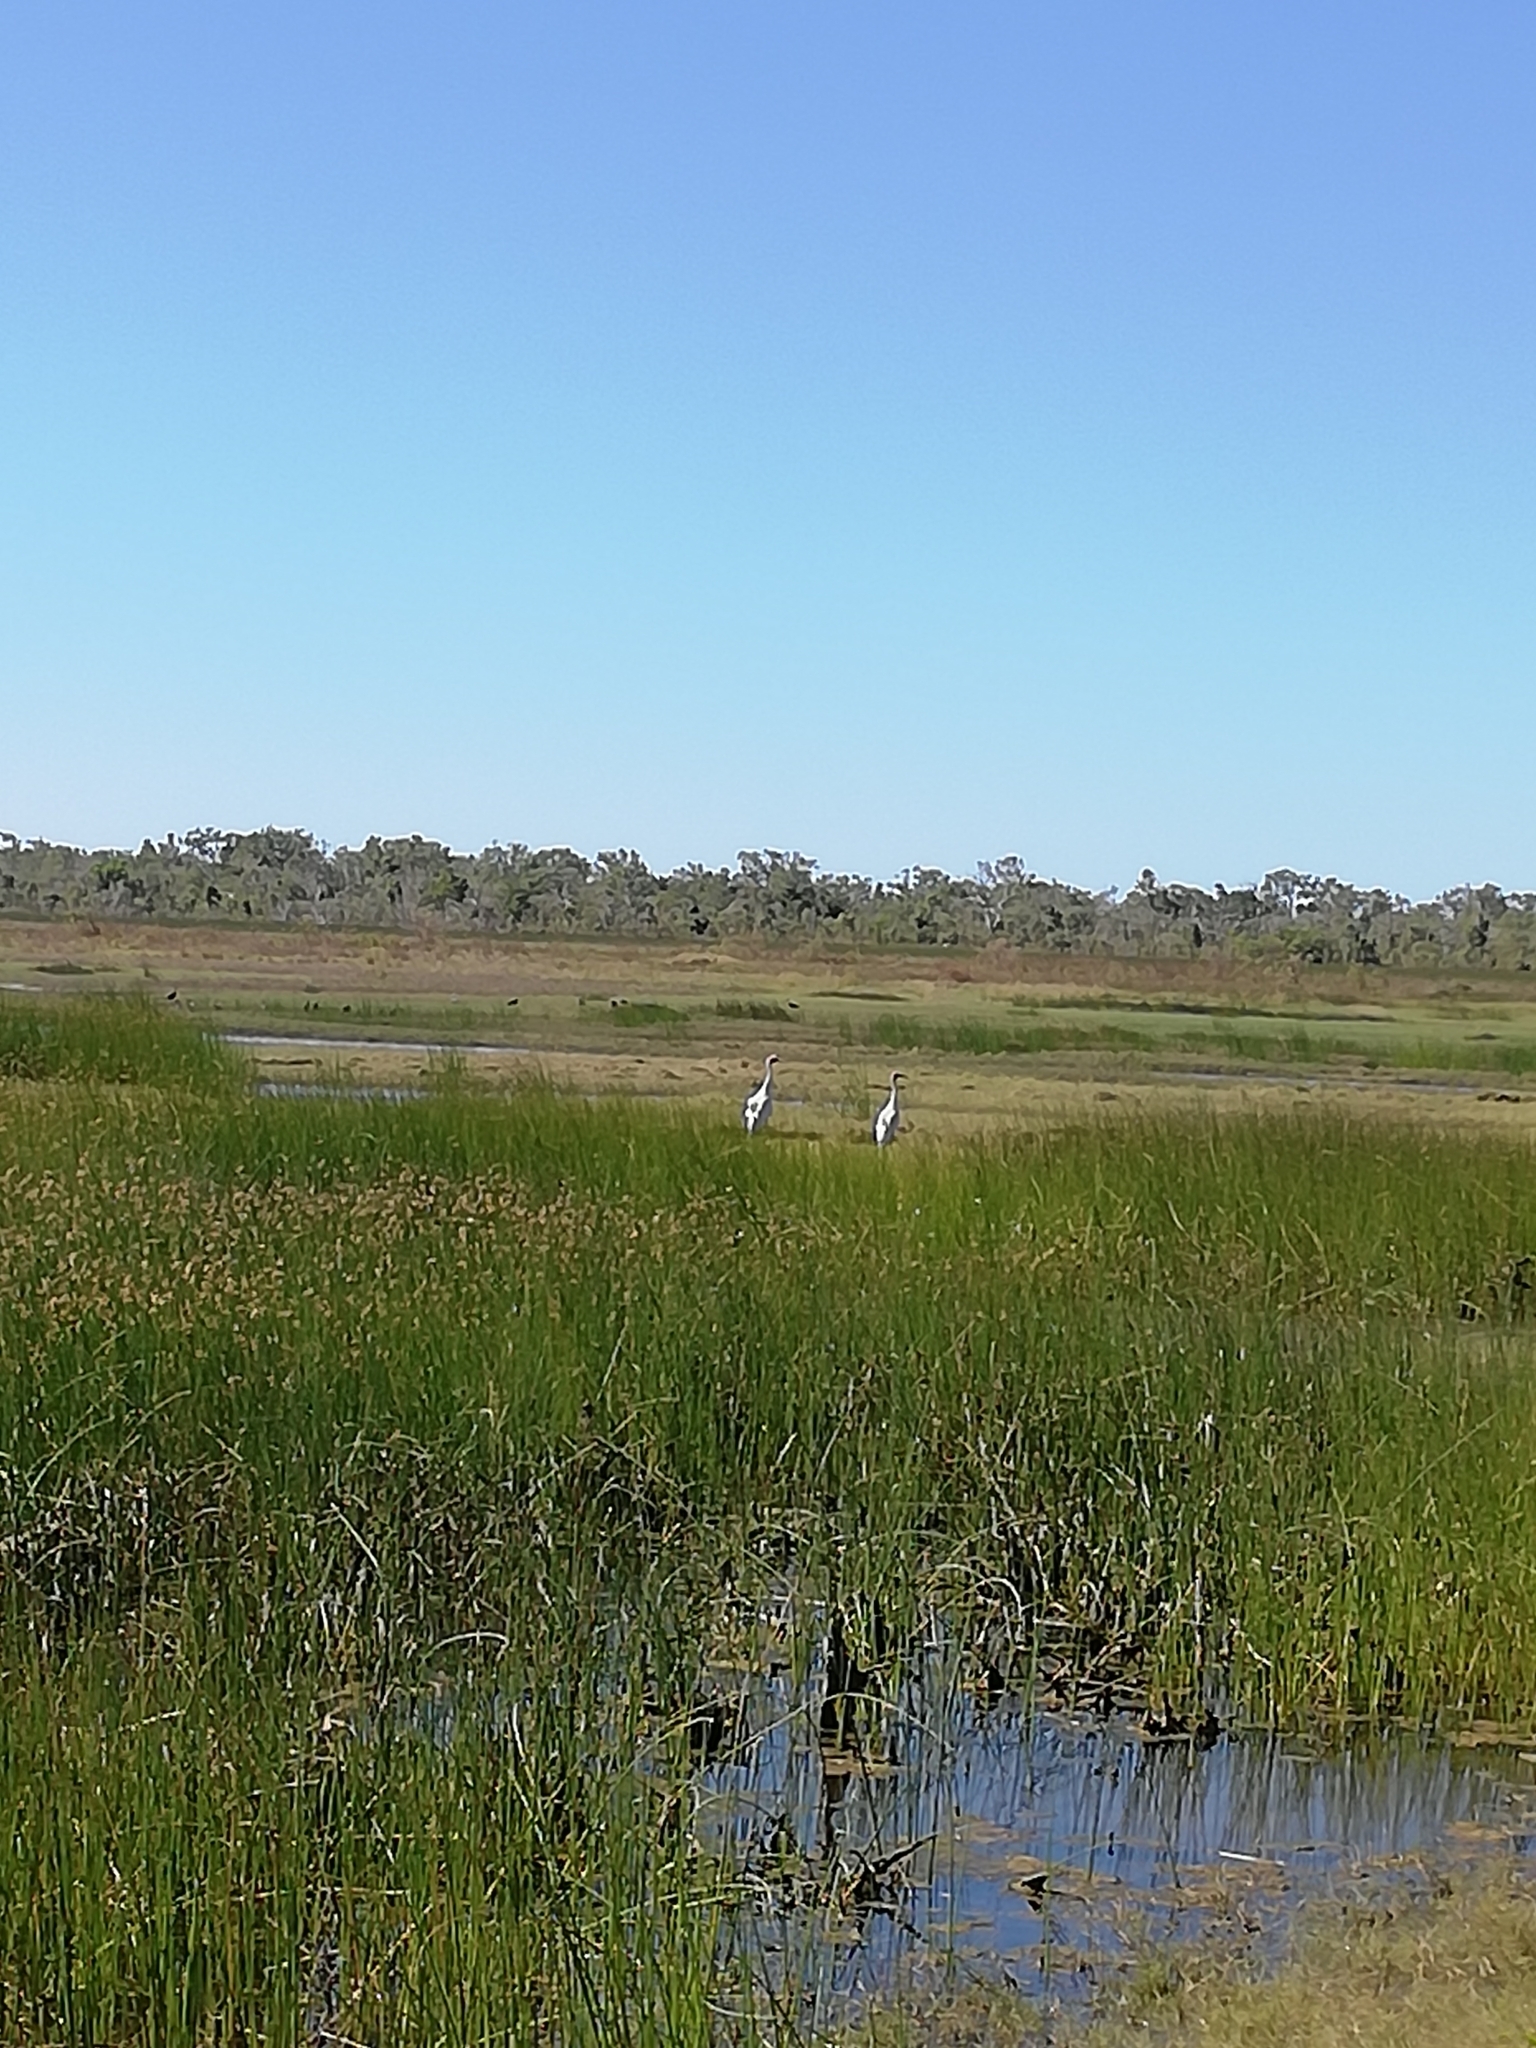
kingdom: Animalia
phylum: Chordata
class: Aves
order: Gruiformes
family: Gruidae
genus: Grus
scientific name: Grus rubicunda
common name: Brolga
